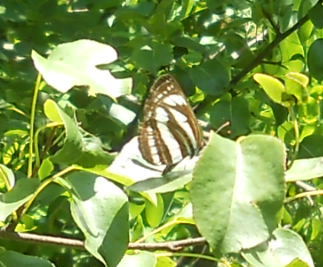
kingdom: Animalia
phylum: Arthropoda
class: Insecta
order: Lepidoptera
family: Nymphalidae
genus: Neptis
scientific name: Neptis sappho
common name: Common glider
